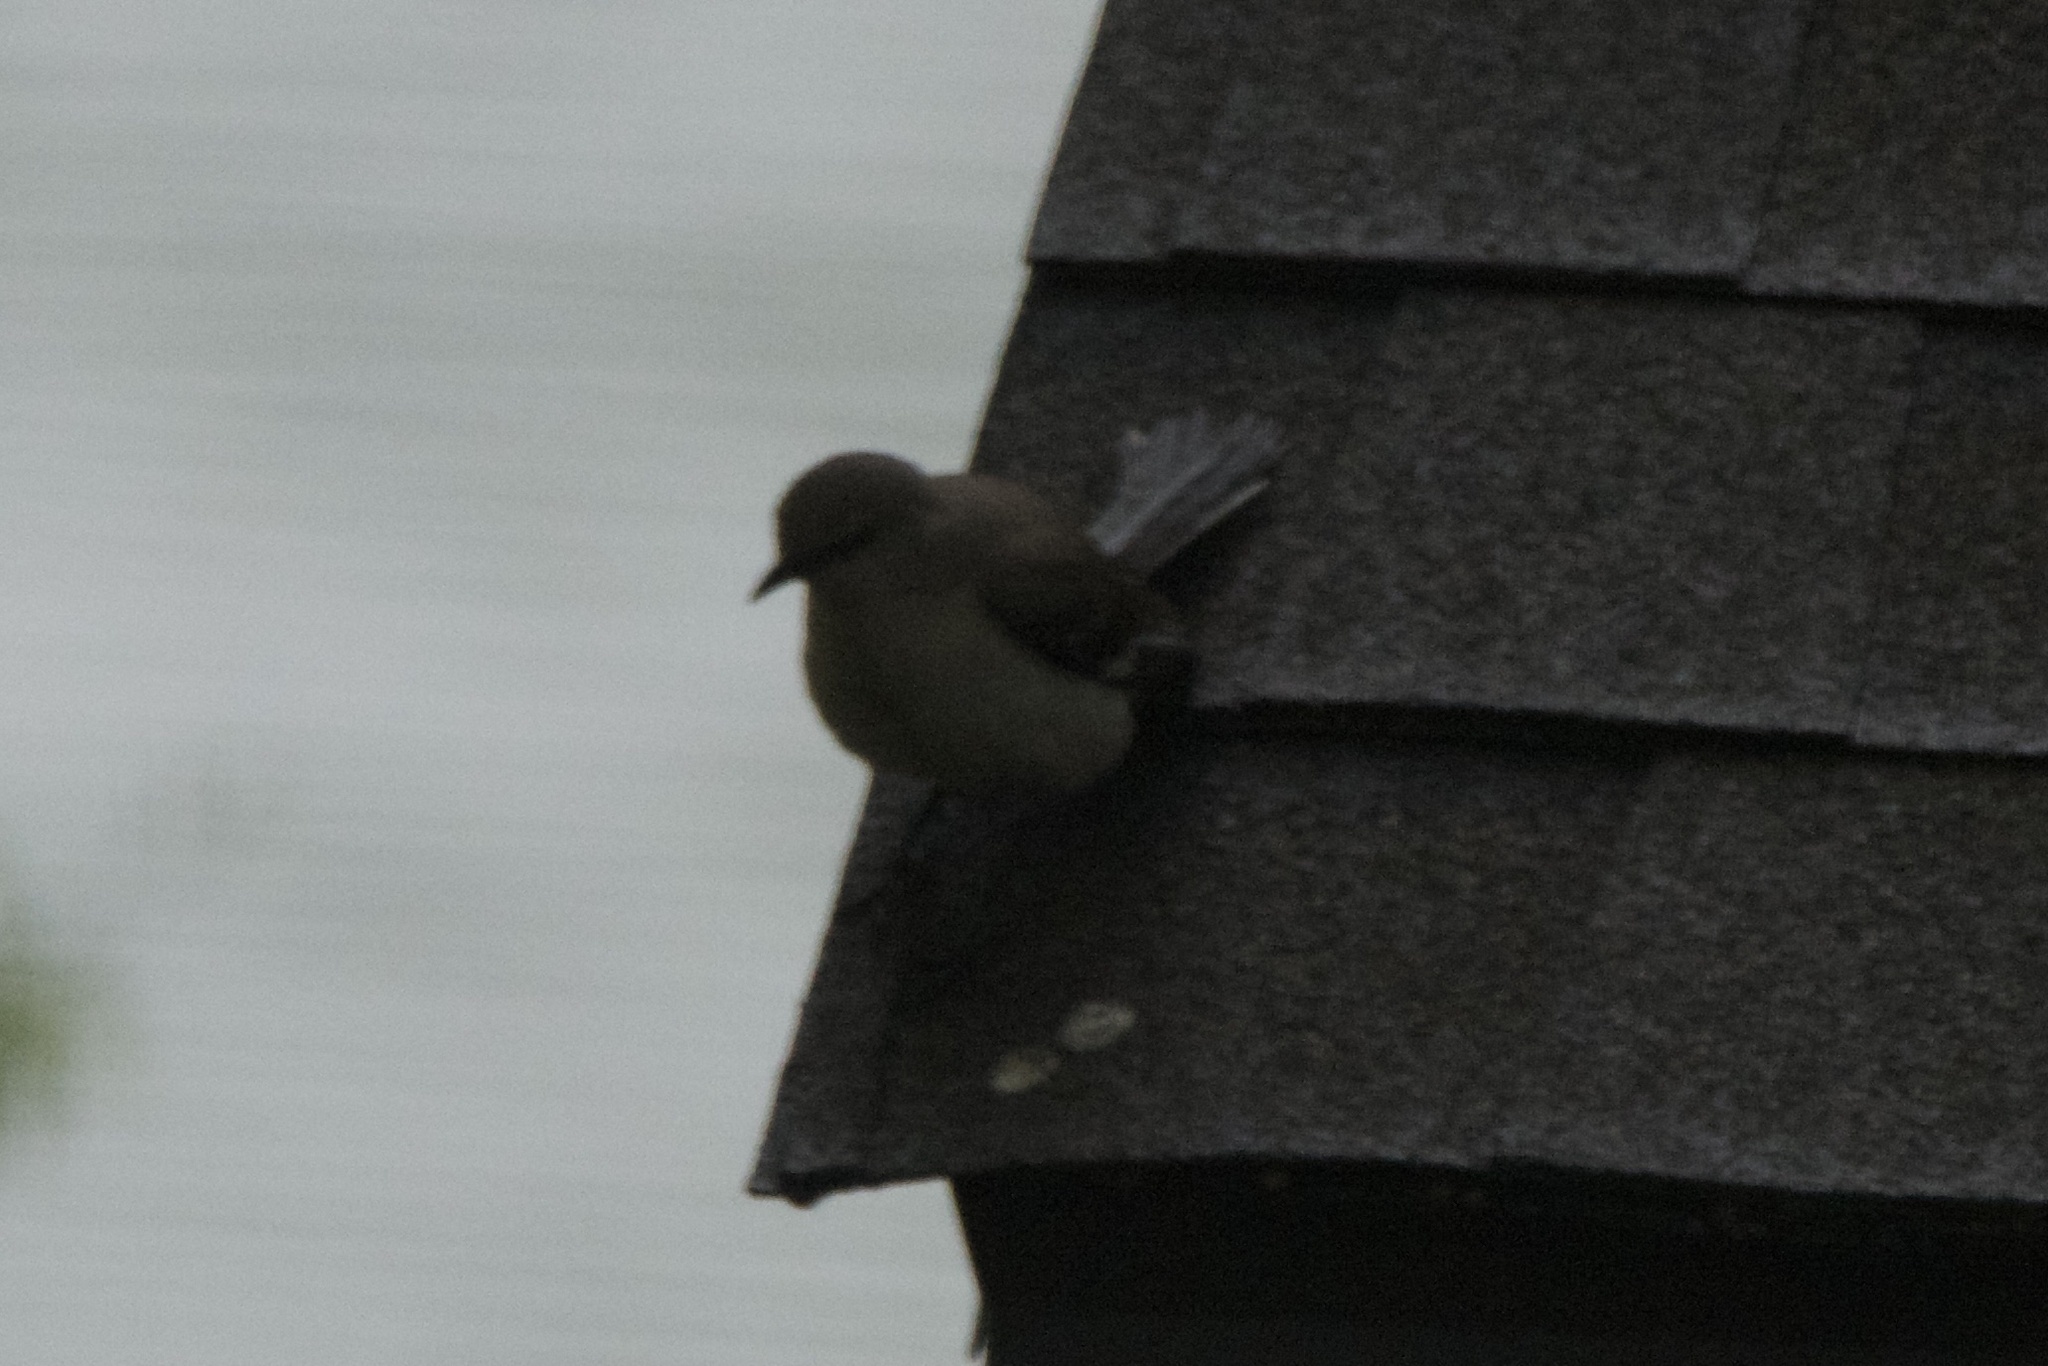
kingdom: Animalia
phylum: Chordata
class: Aves
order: Passeriformes
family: Mimidae
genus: Mimus
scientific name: Mimus polyglottos
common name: Northern mockingbird
